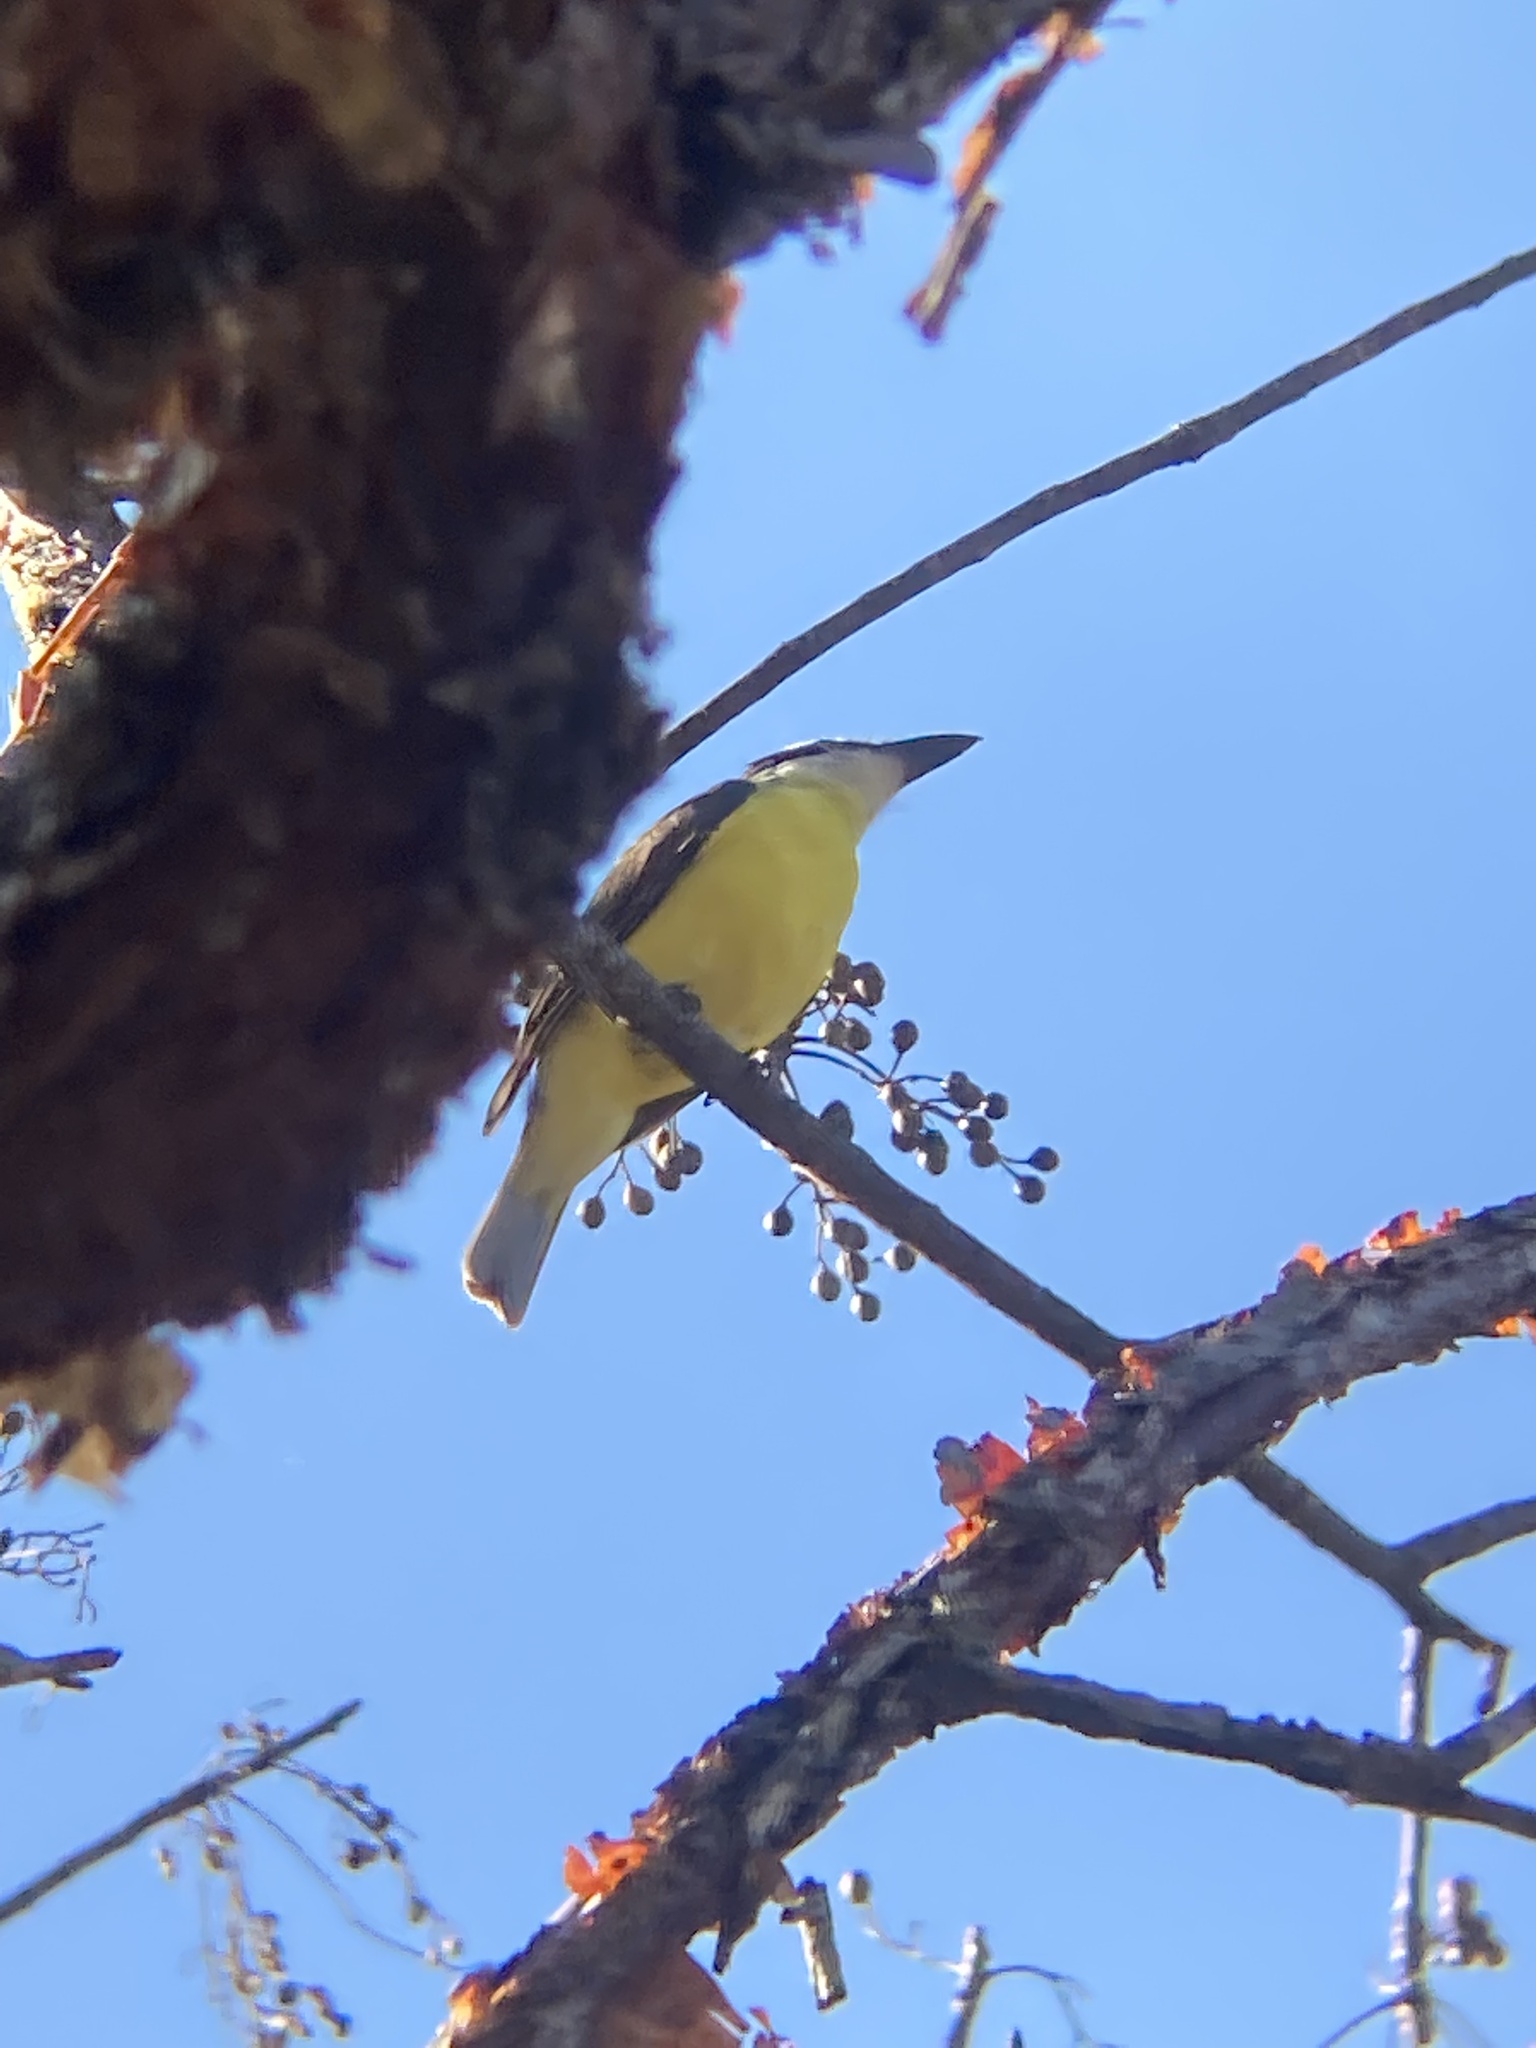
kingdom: Animalia
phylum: Chordata
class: Aves
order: Passeriformes
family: Tyrannidae
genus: Megarynchus
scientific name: Megarynchus pitangua
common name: Boat-billed flycatcher
